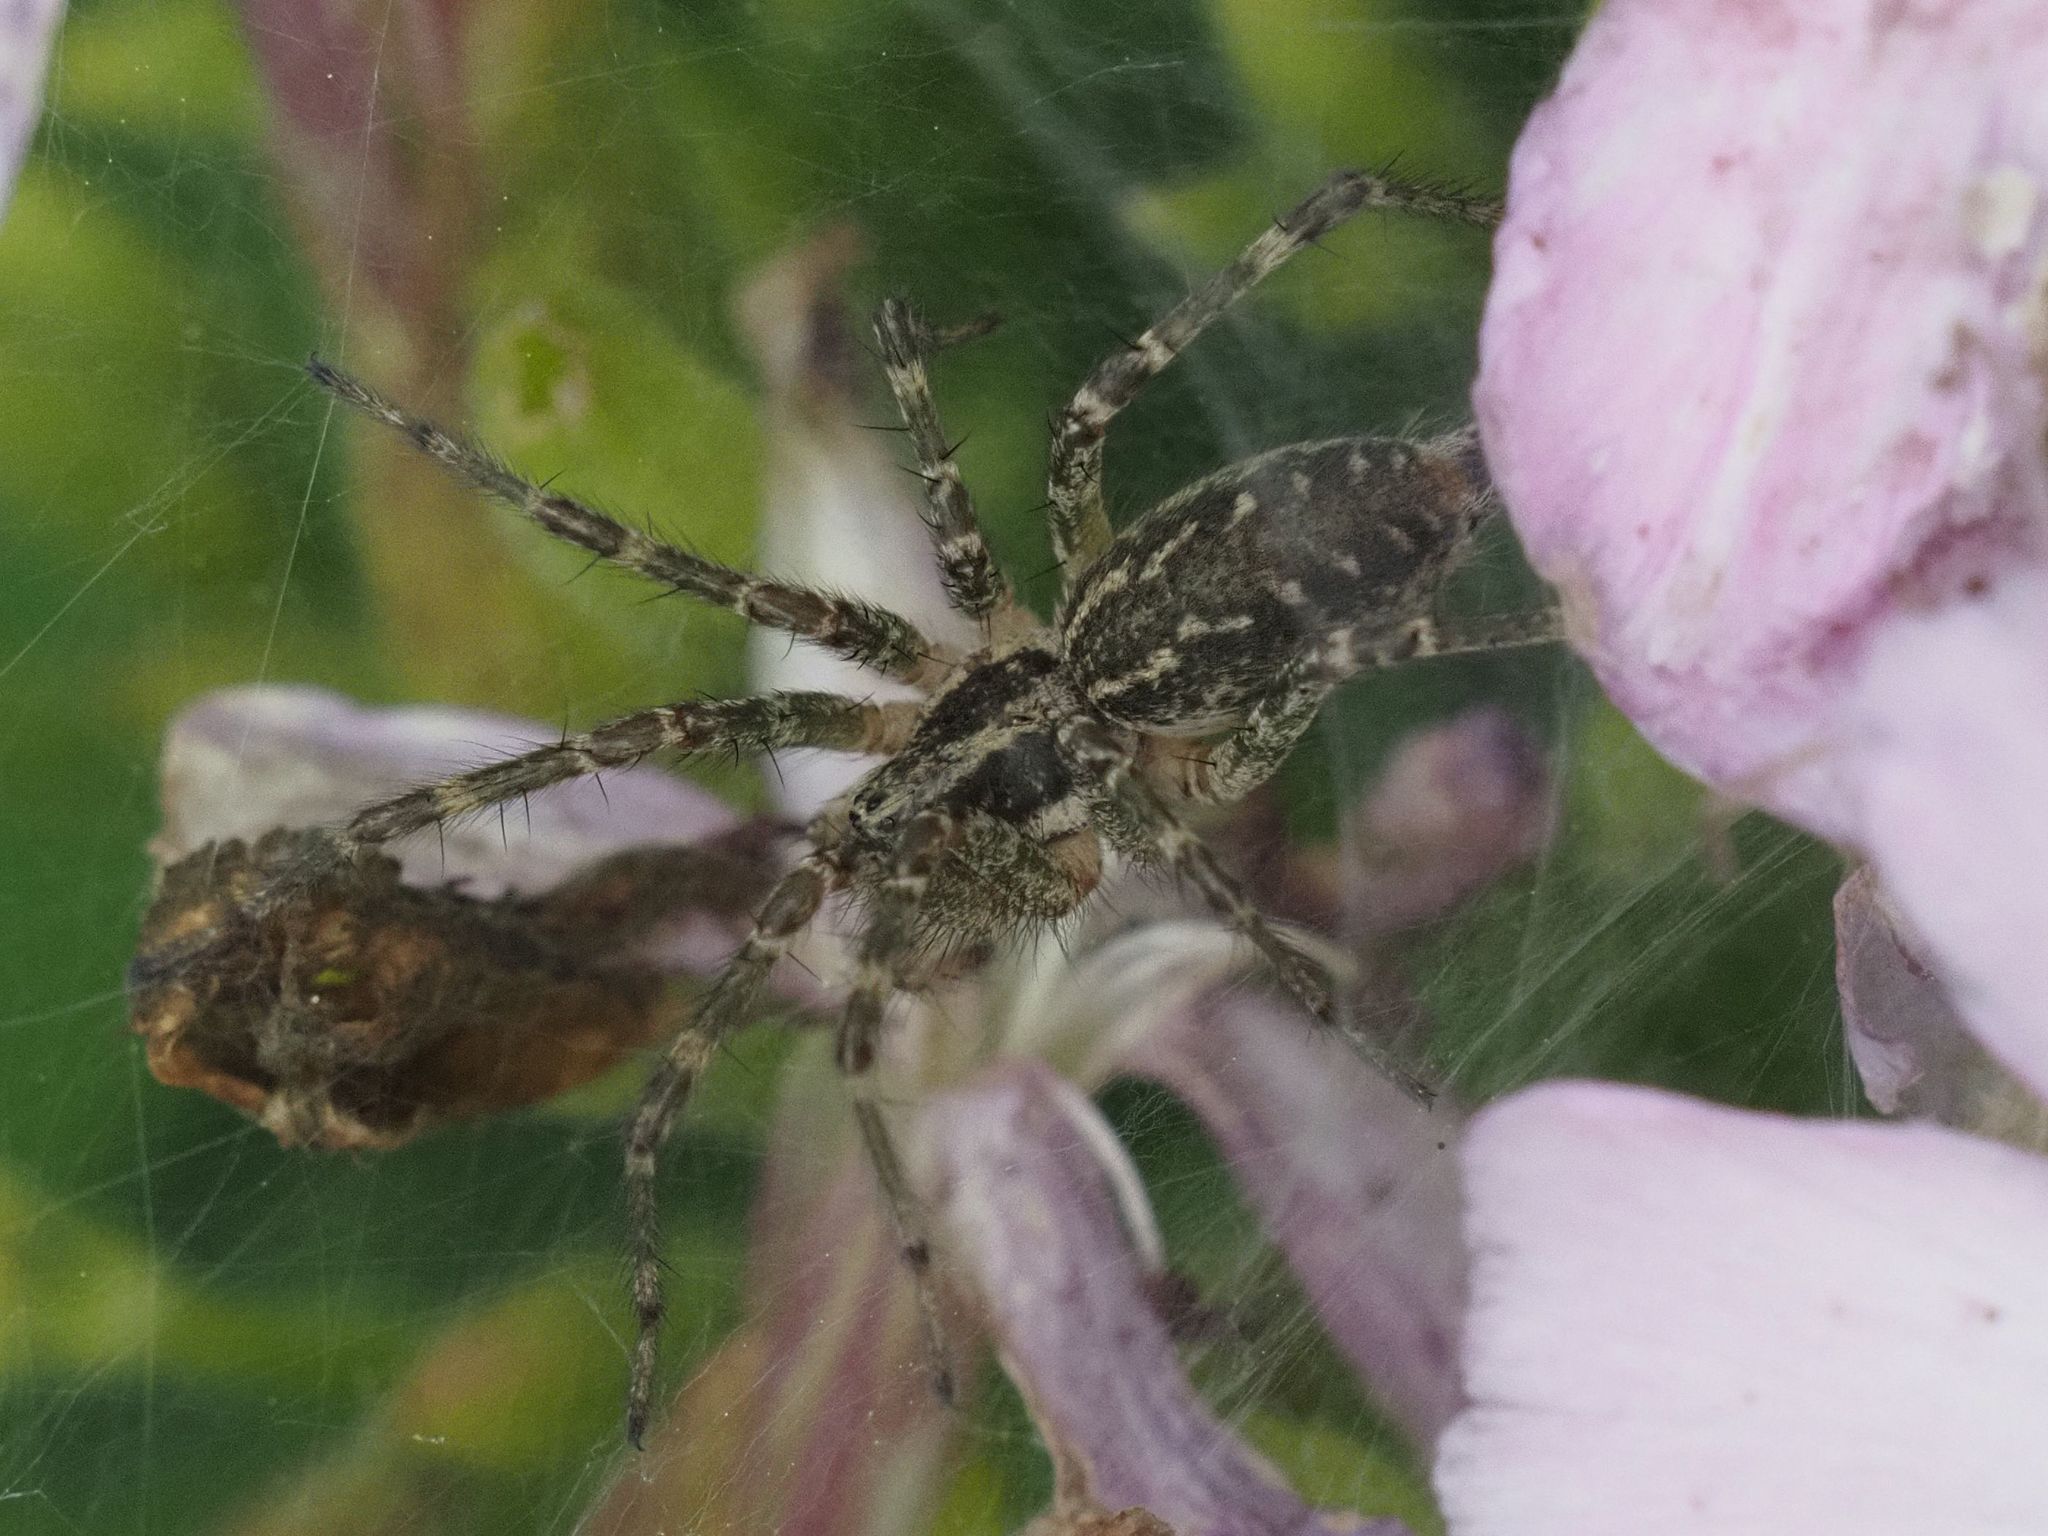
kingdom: Animalia
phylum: Arthropoda
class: Arachnida
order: Araneae
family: Agelenidae
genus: Allagelena
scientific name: Allagelena gracilens
